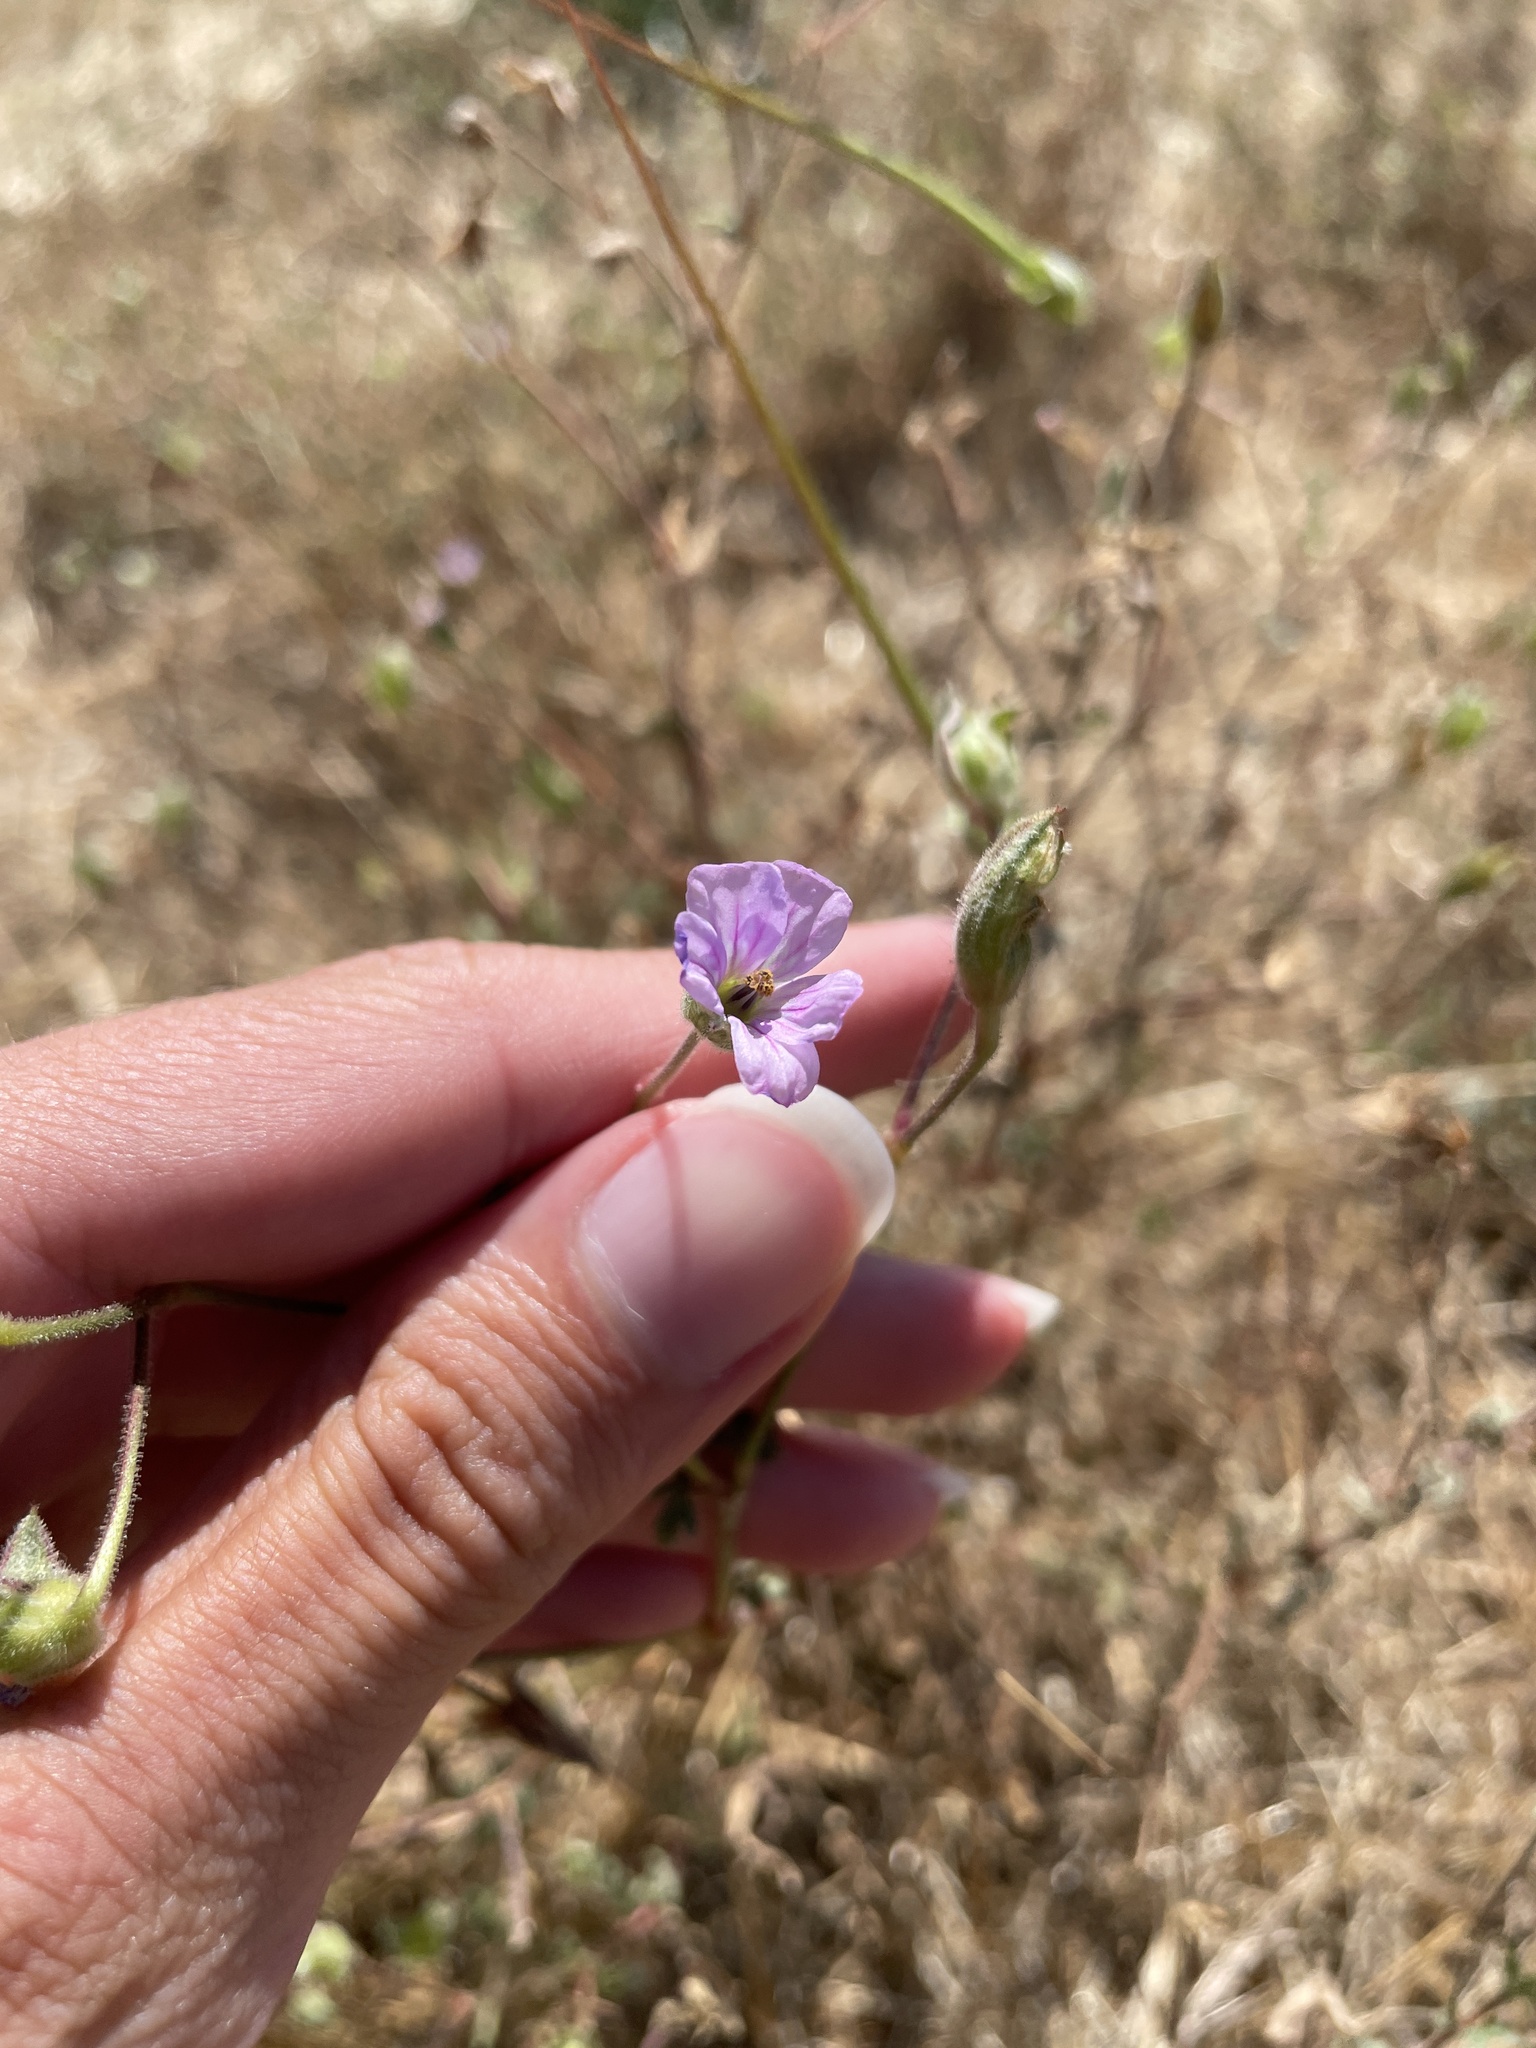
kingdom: Plantae
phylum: Tracheophyta
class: Magnoliopsida
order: Geraniales
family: Geraniaceae
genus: Erodium
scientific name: Erodium botrys
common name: Mediterranean stork's-bill
